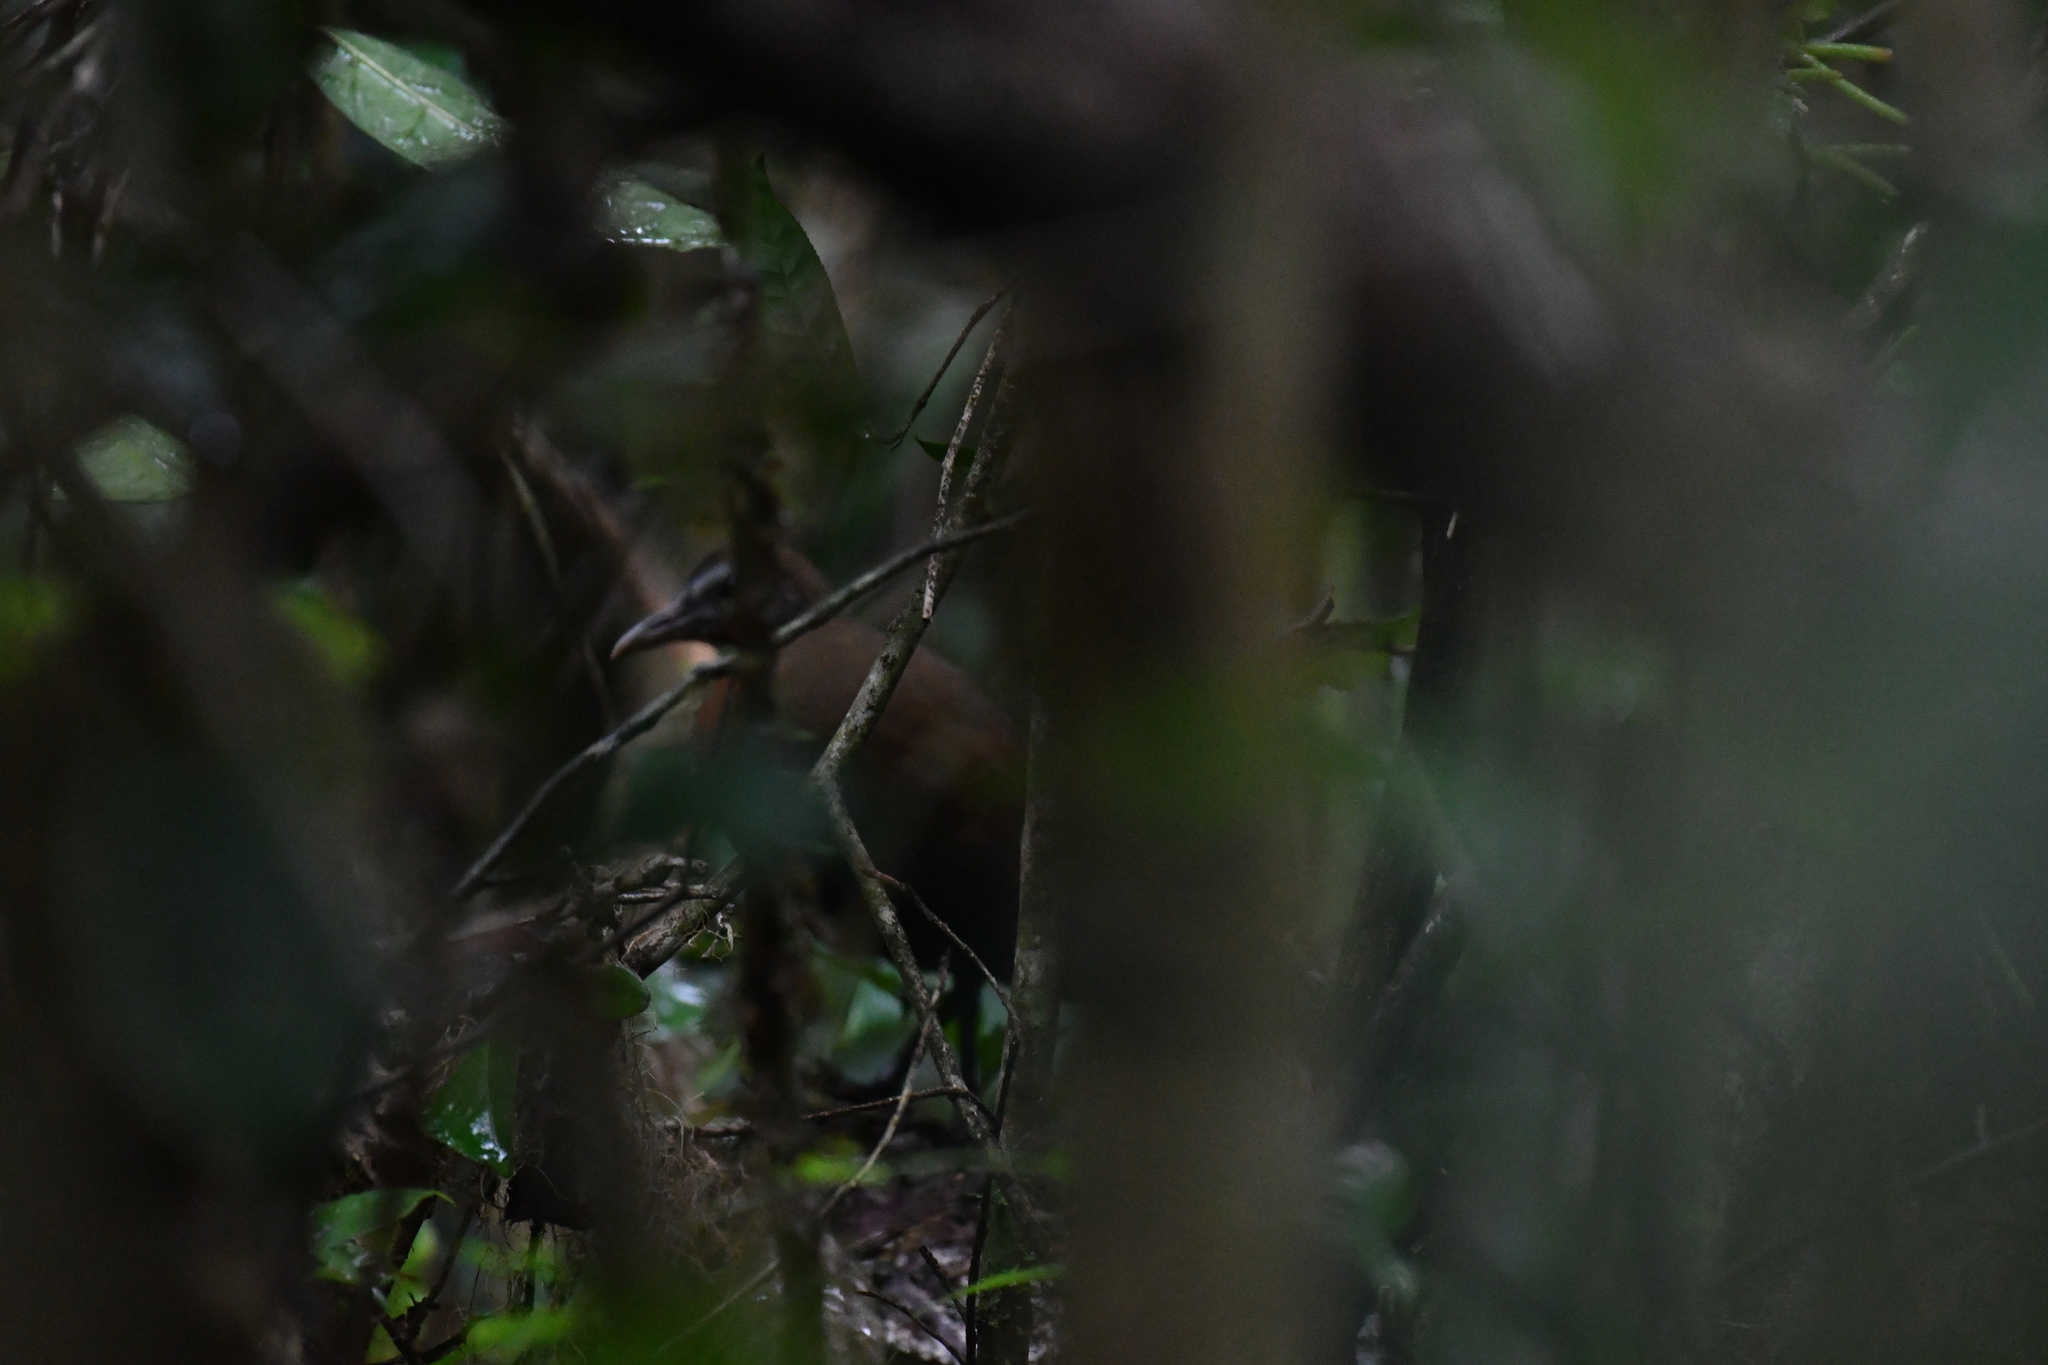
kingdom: Animalia
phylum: Chordata
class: Aves
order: Gruiformes
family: Sarothruridae
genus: Mentocrex
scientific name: Mentocrex kioloides
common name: Madagascar forest rail
